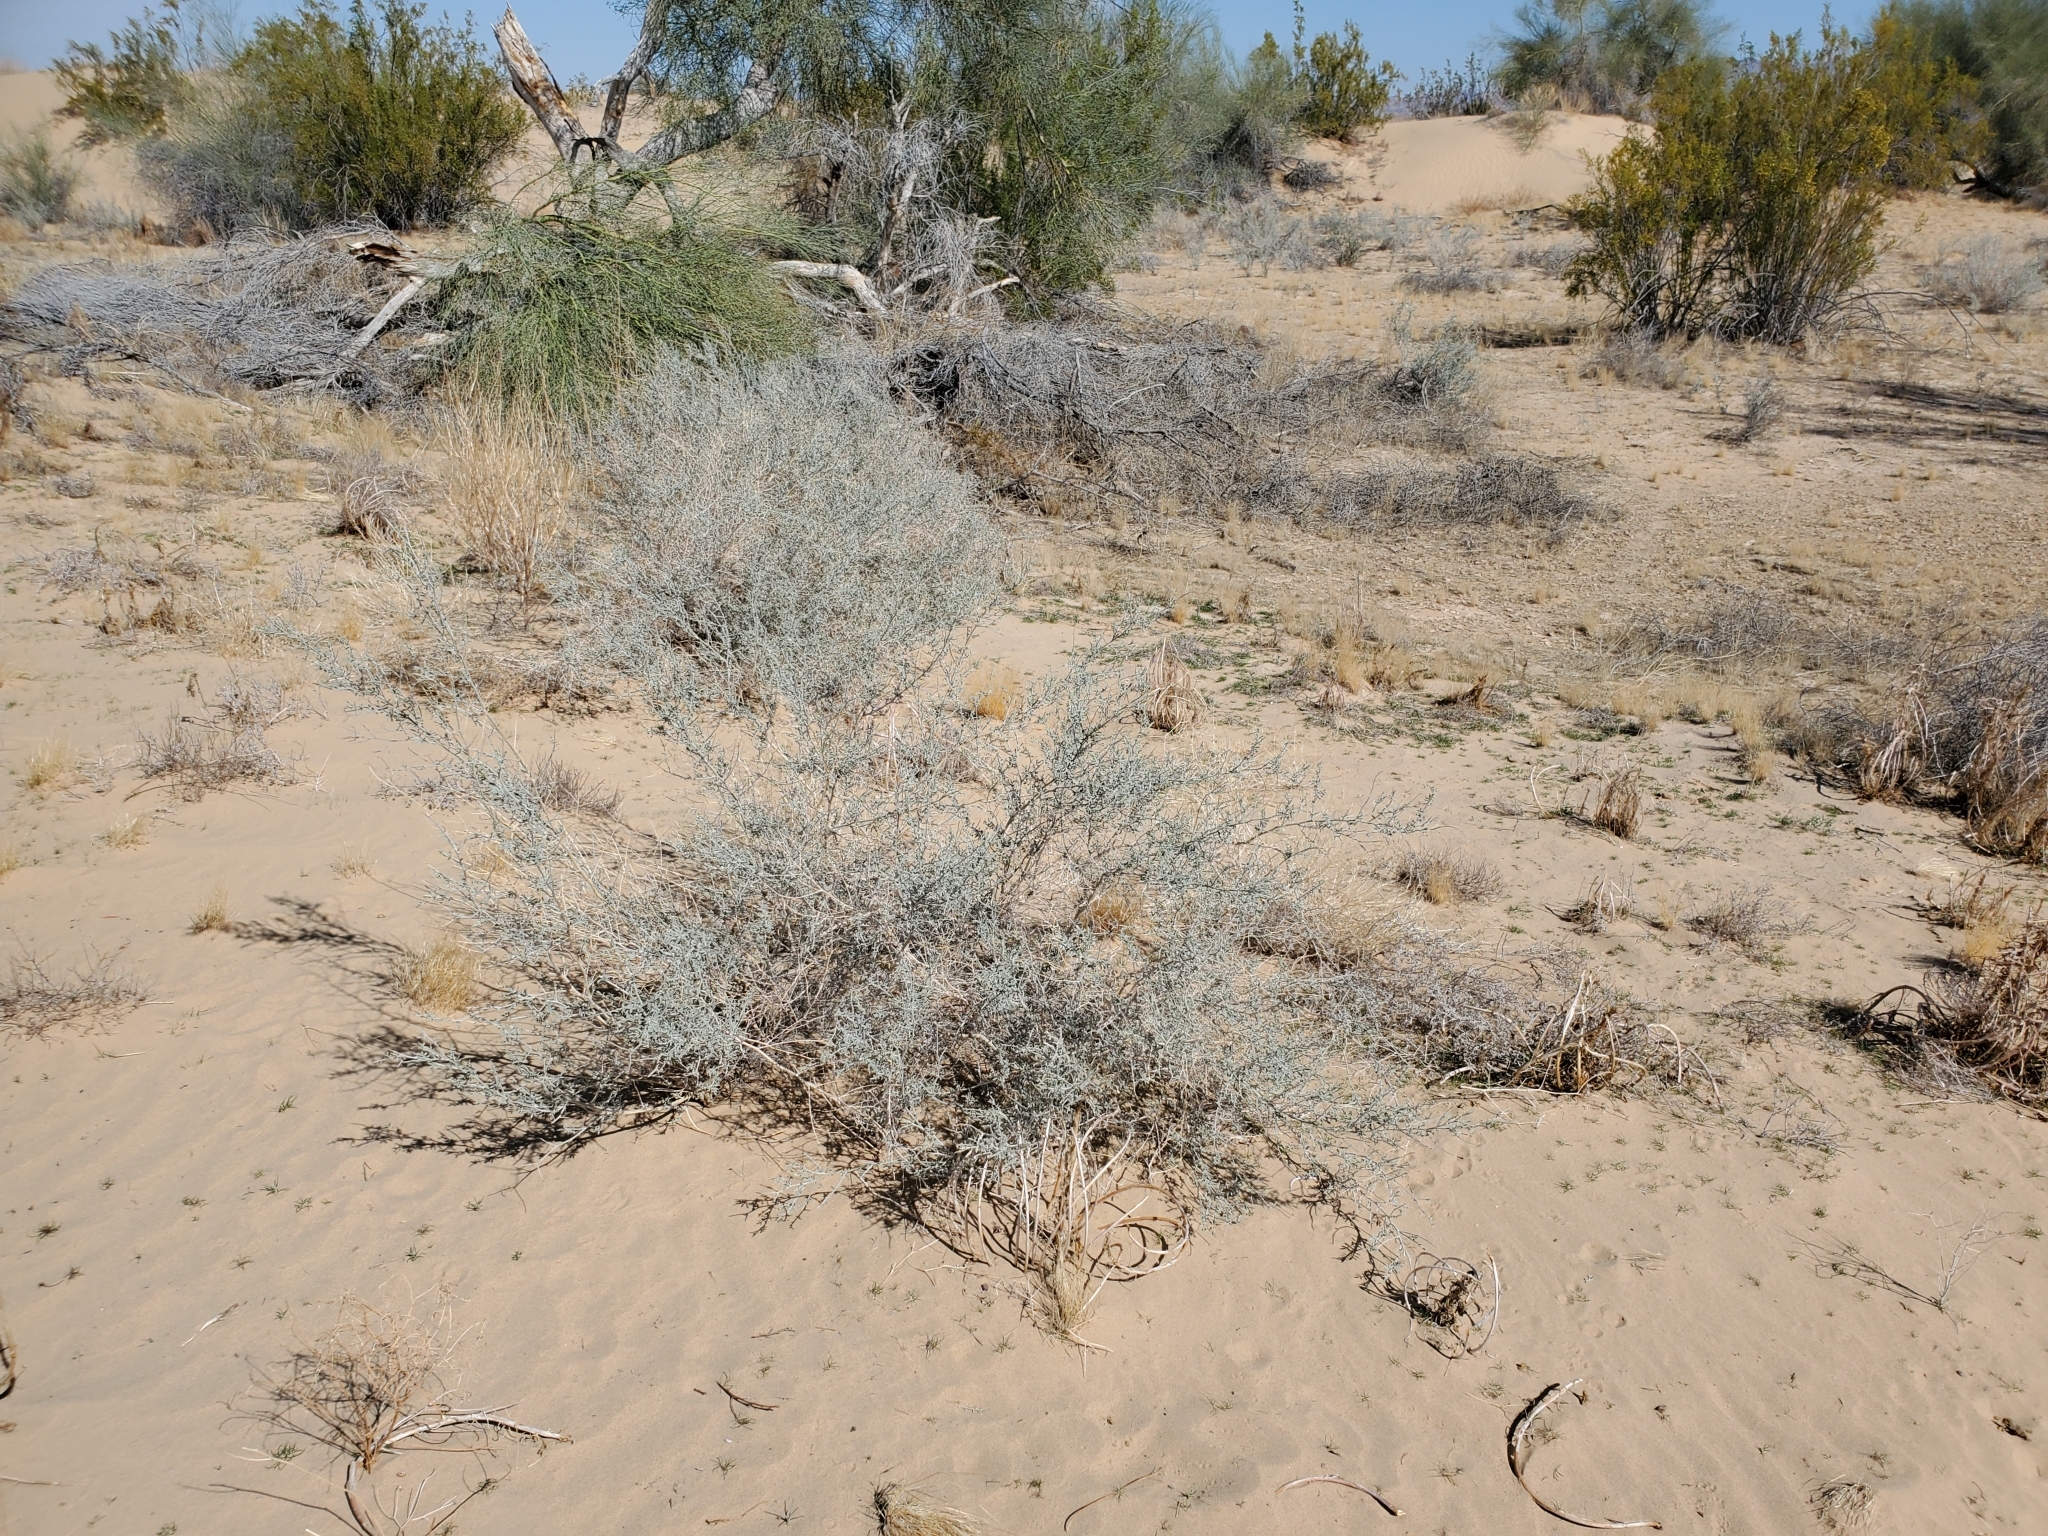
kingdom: Plantae
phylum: Tracheophyta
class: Magnoliopsida
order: Fabales
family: Fabaceae
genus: Psorothamnus
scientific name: Psorothamnus emoryi
